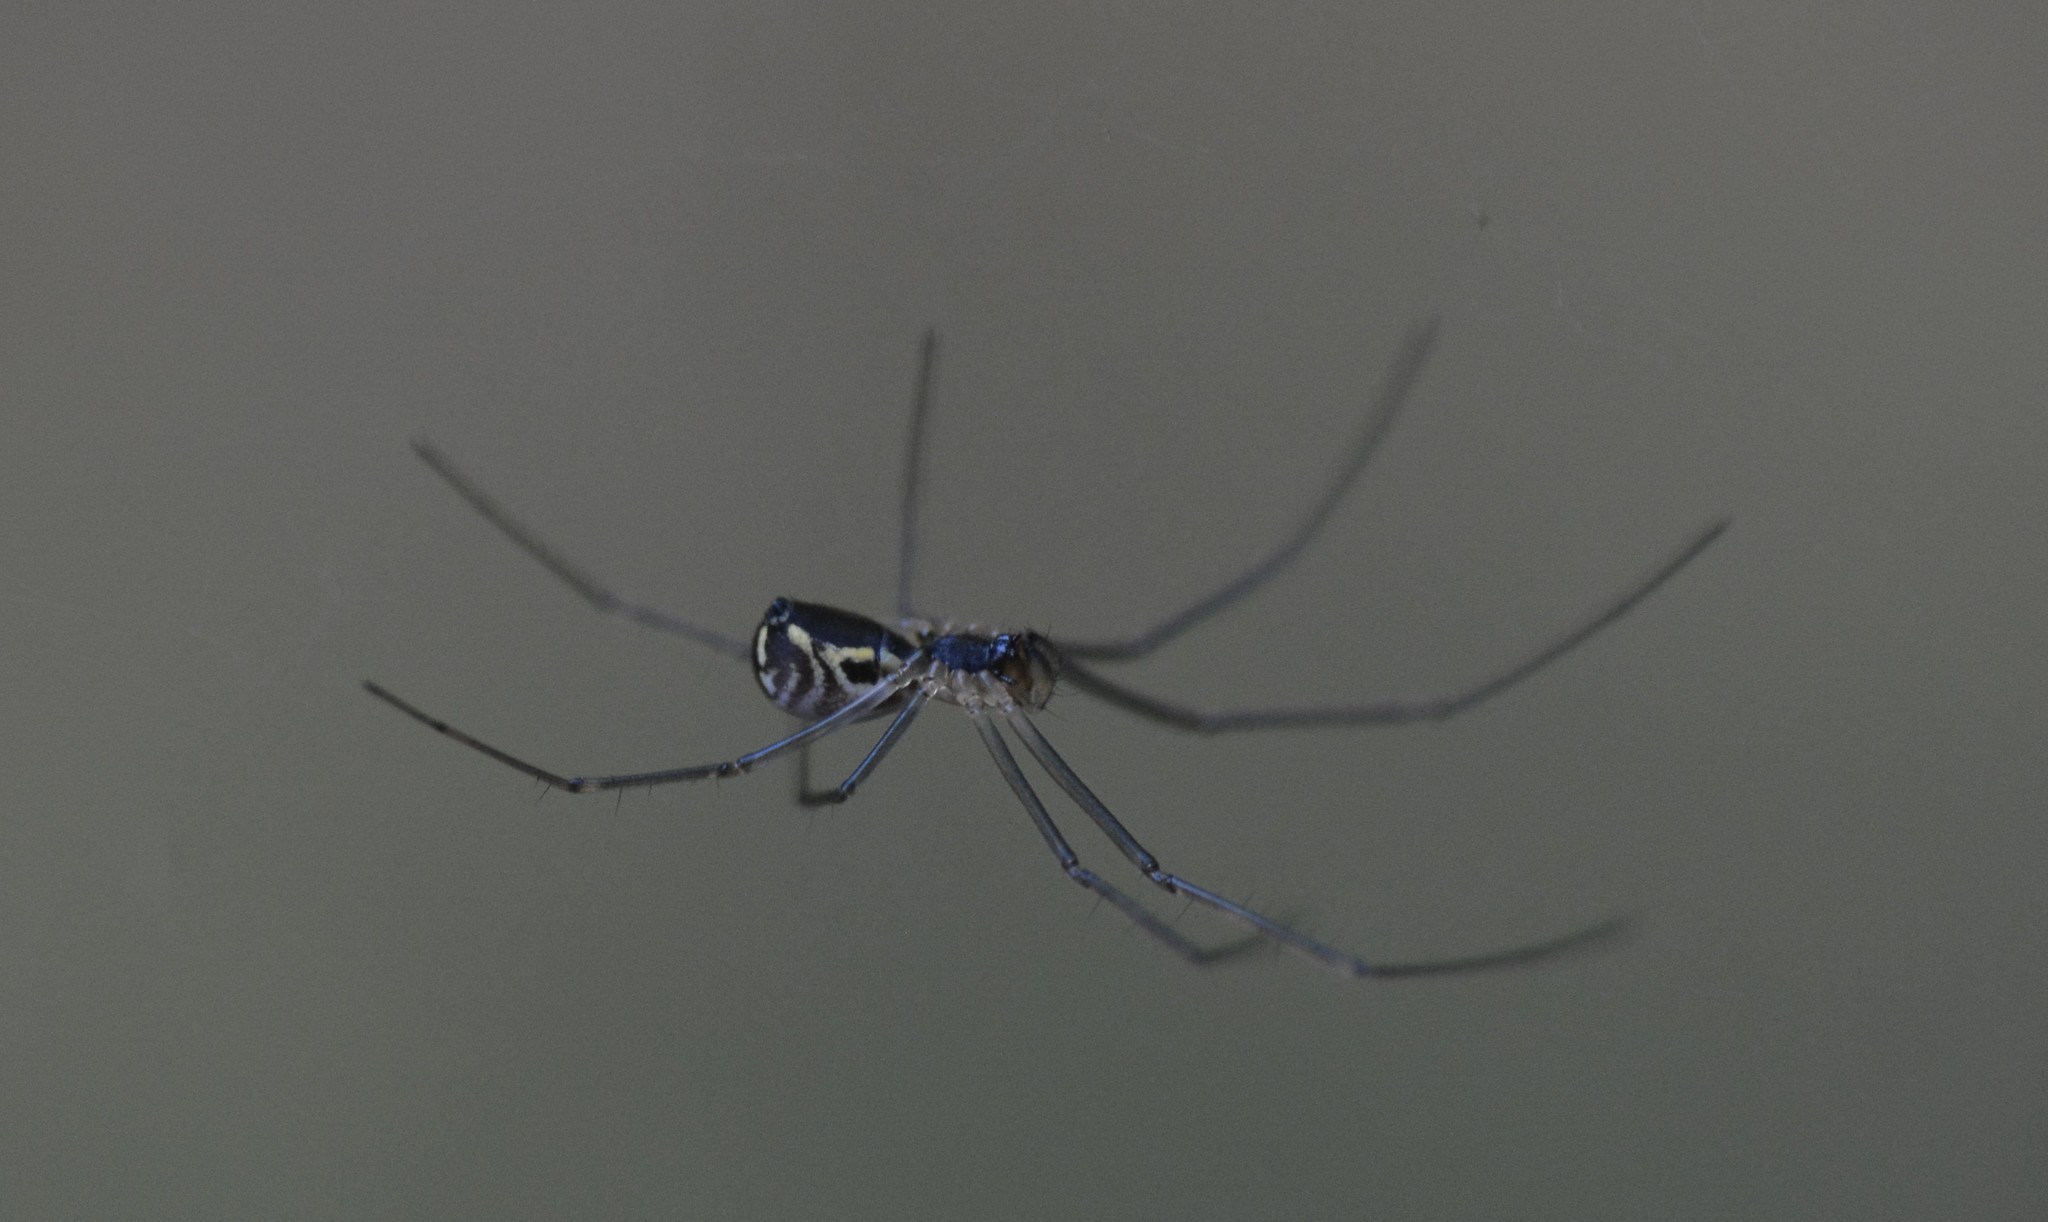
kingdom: Animalia
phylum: Arthropoda
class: Arachnida
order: Araneae
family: Linyphiidae
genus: Neriene
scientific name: Neriene radiata
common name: Filmy dome spider
